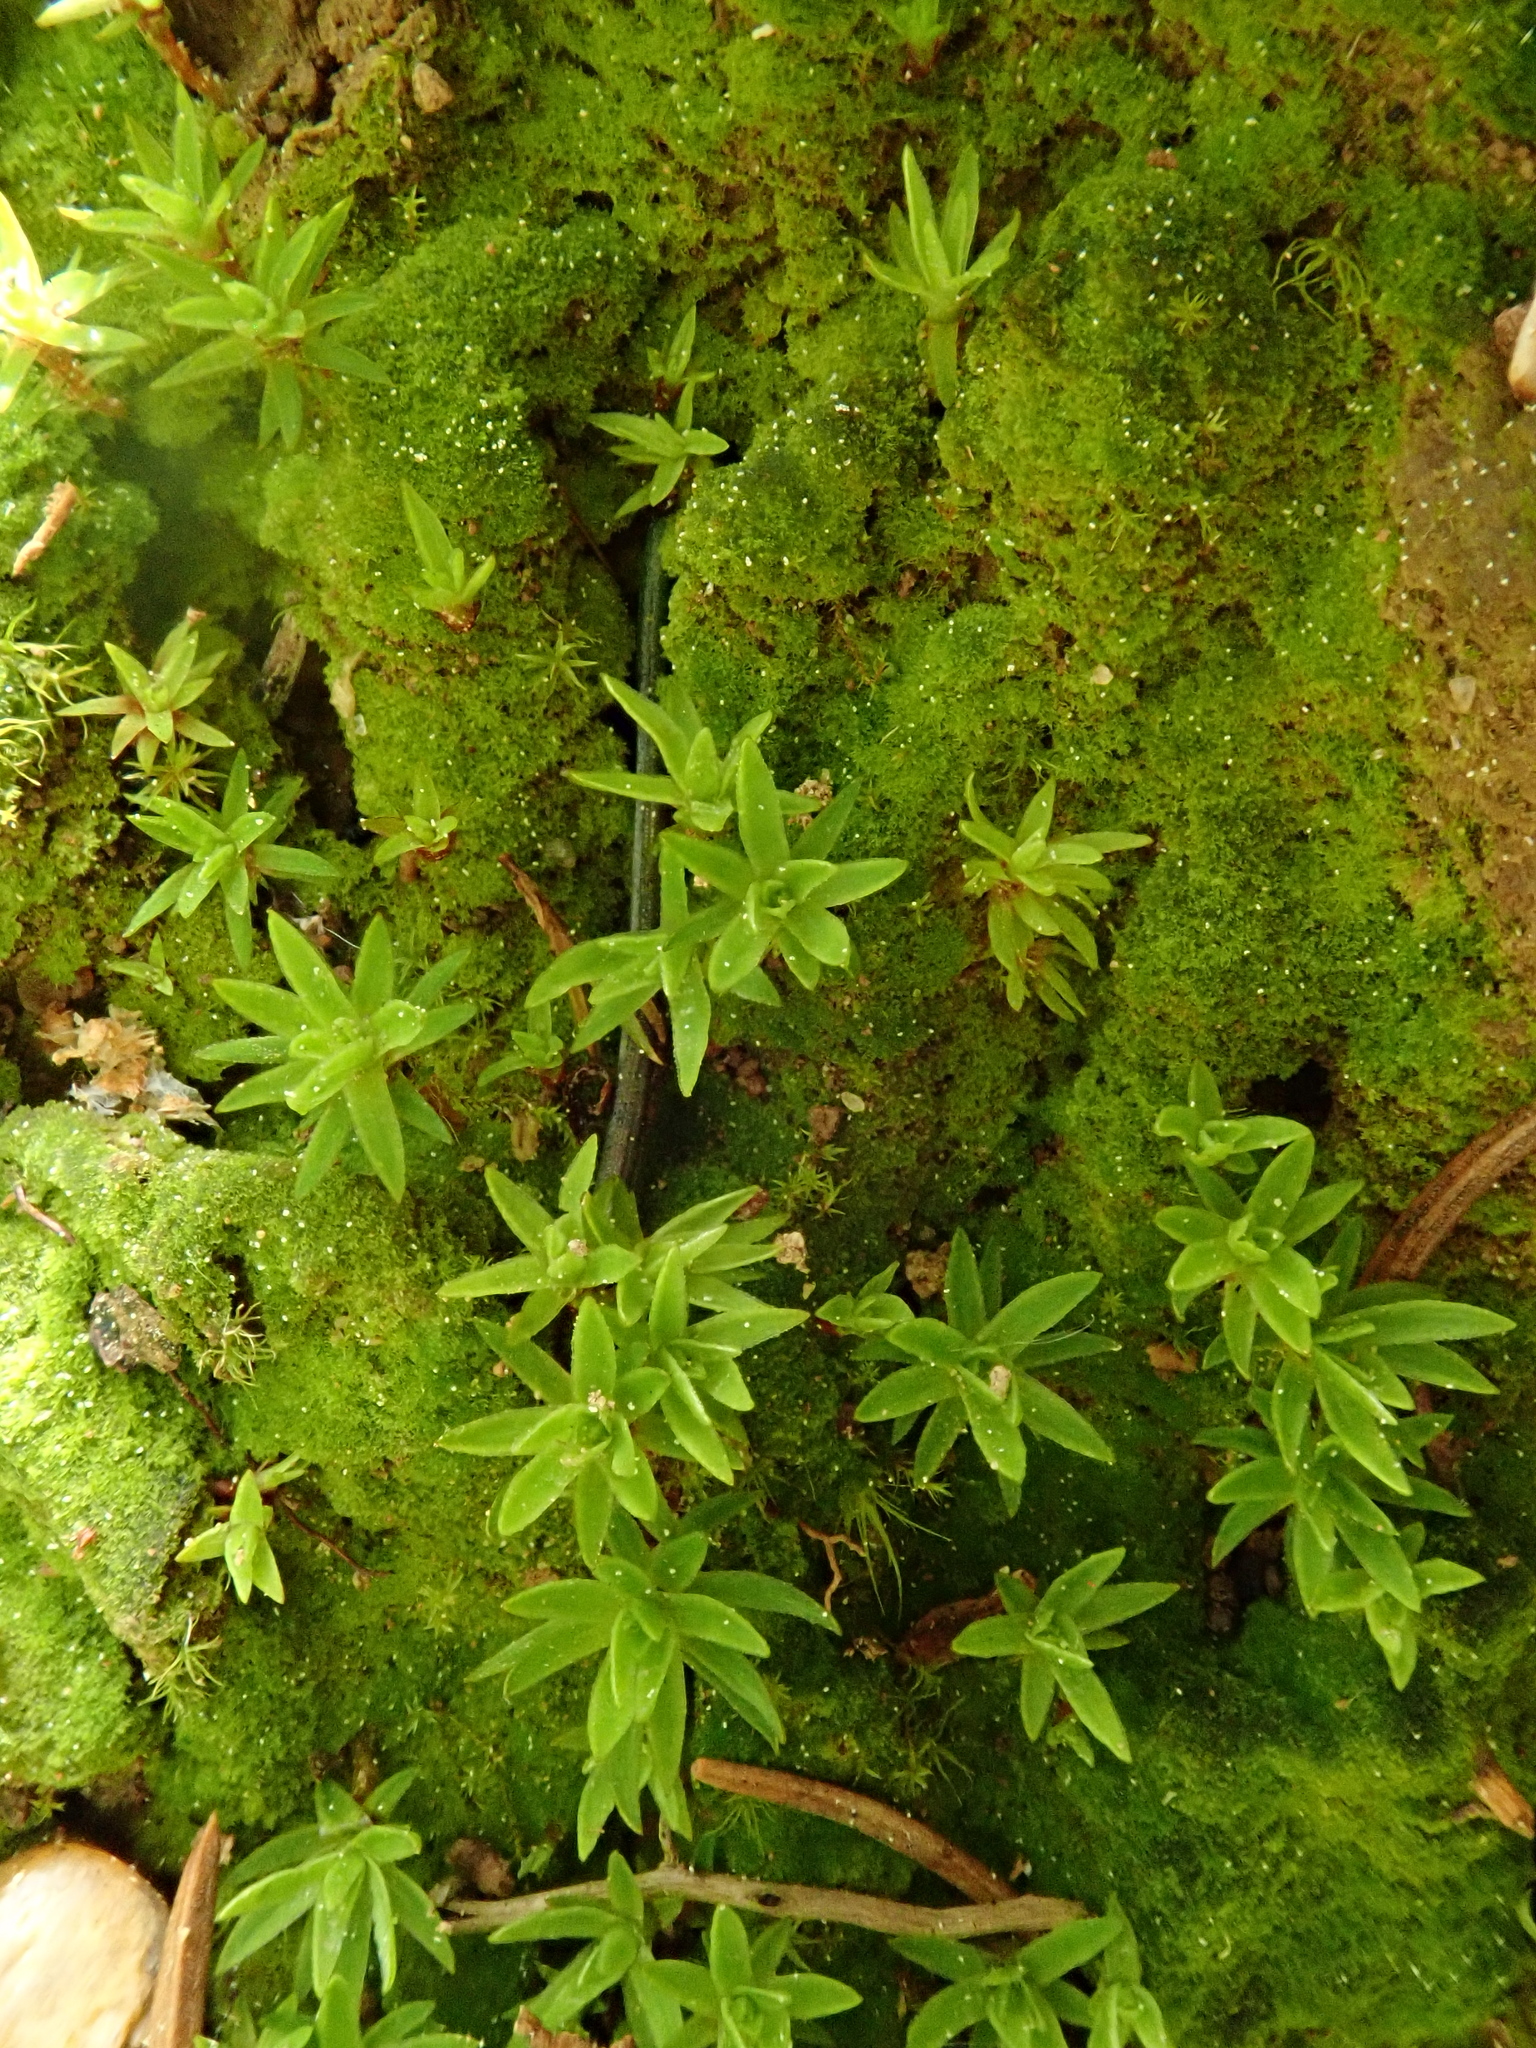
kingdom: Plantae
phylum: Bryophyta
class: Polytrichopsida
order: Polytrichales
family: Polytrichaceae
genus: Pogonatum
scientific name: Pogonatum aloides
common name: Aloe haircap
